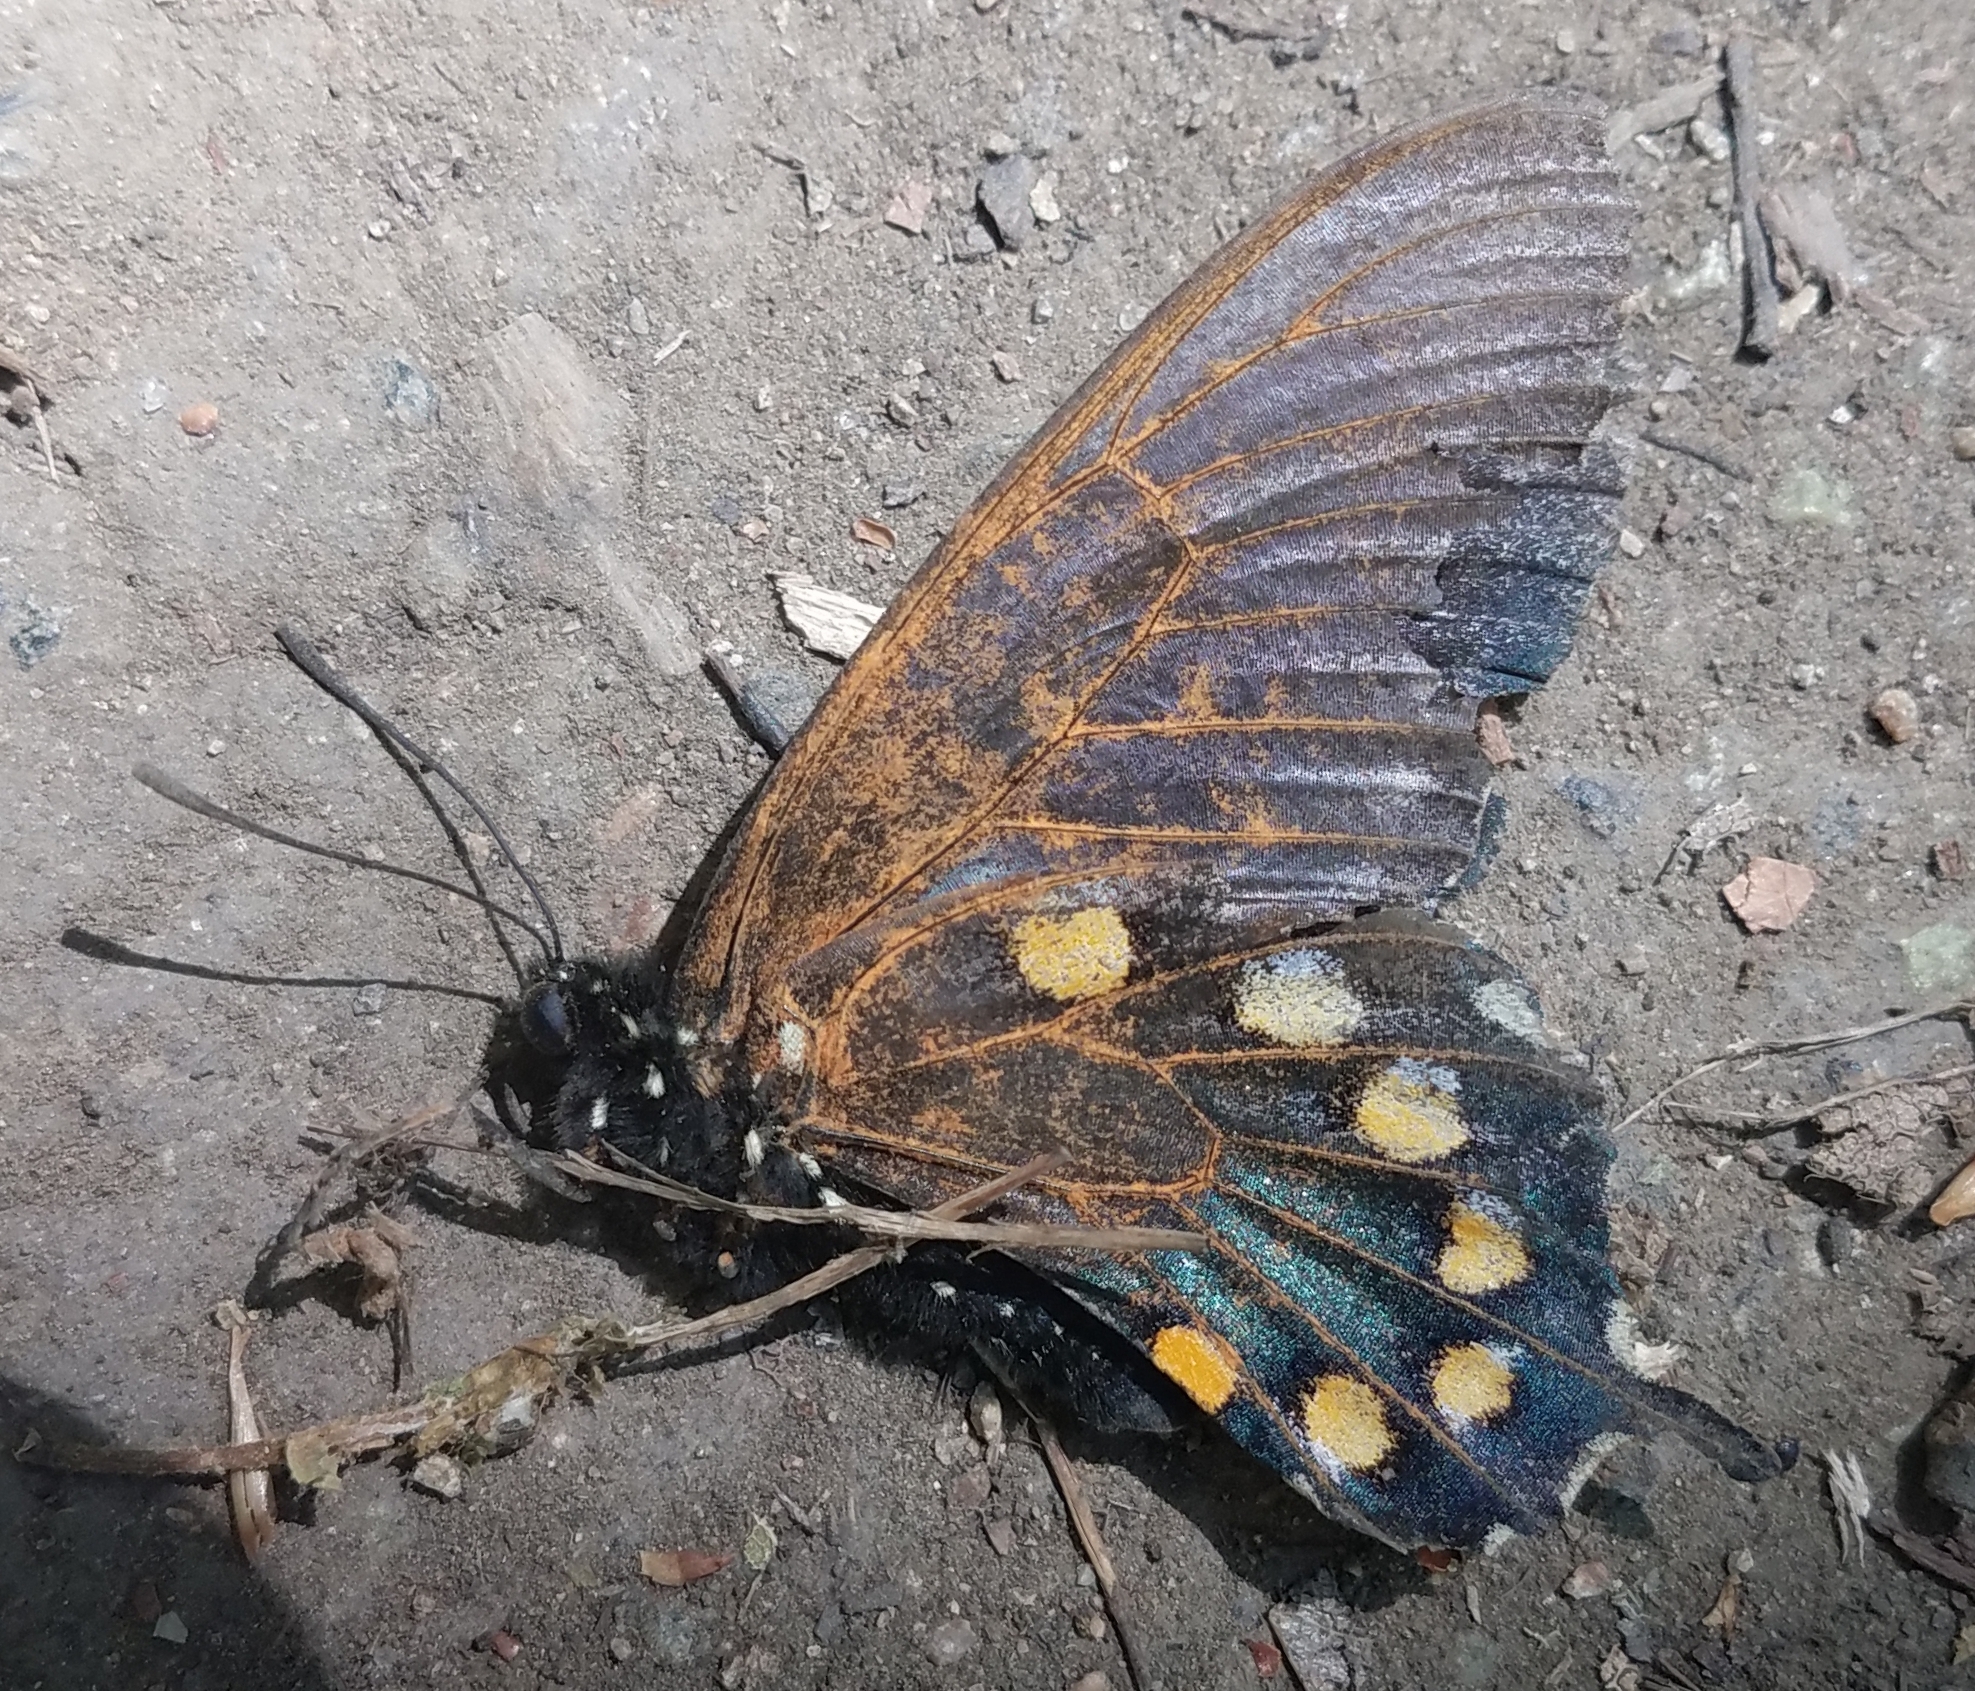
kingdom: Animalia
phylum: Arthropoda
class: Insecta
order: Lepidoptera
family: Papilionidae
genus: Battus
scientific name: Battus philenor
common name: Pipevine swallowtail
